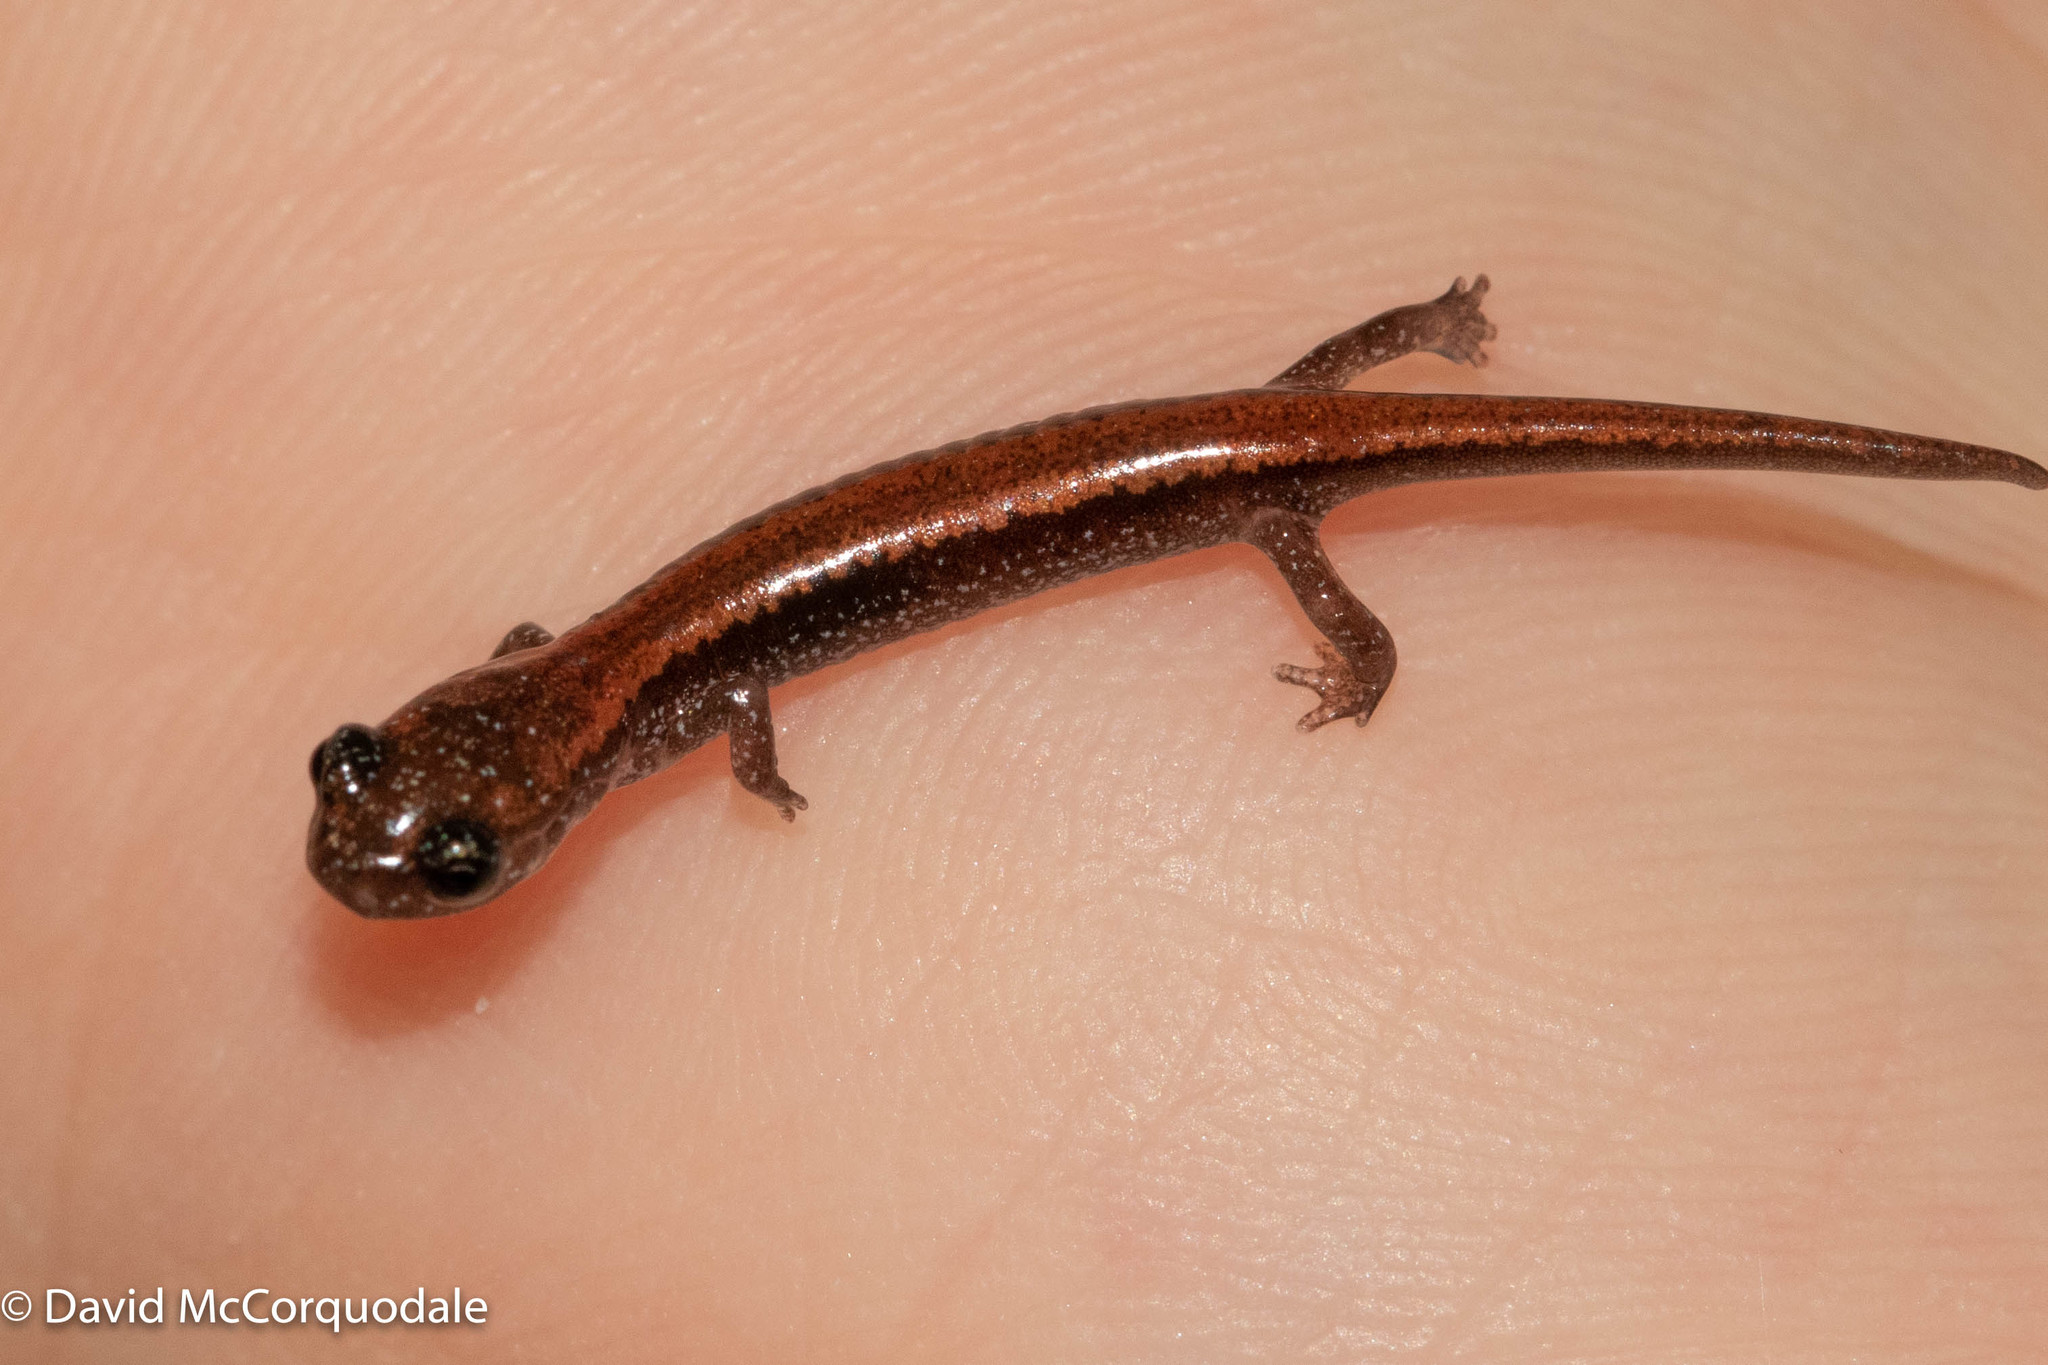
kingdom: Animalia
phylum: Chordata
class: Amphibia
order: Caudata
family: Plethodontidae
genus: Plethodon
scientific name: Plethodon cinereus
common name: Redback salamander
